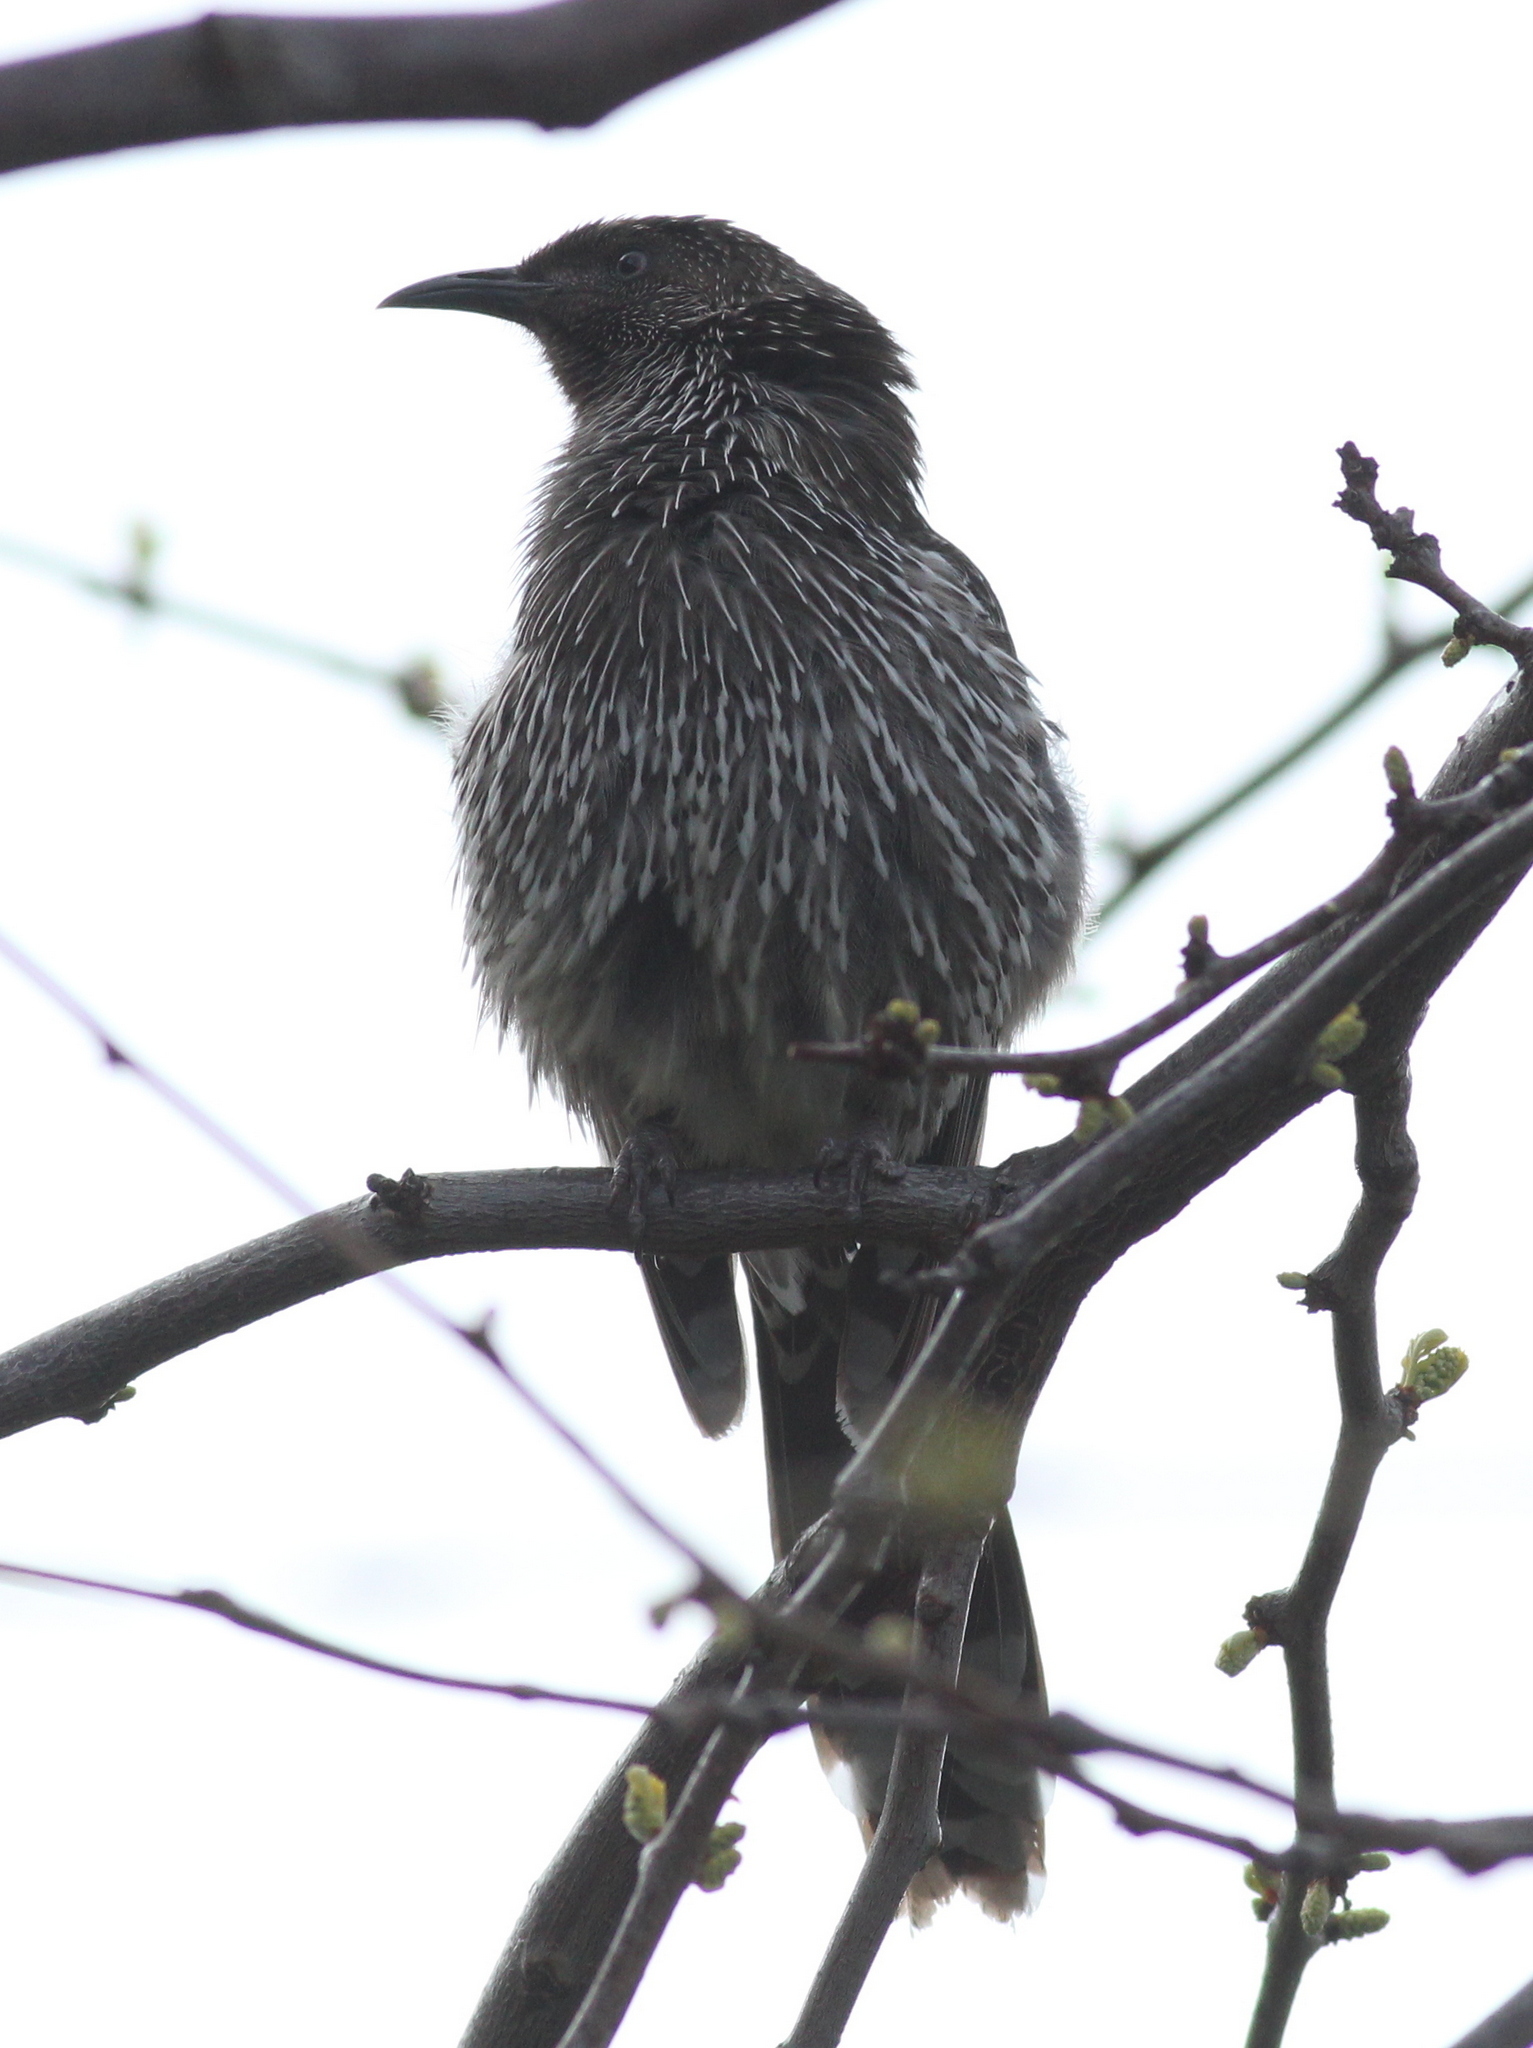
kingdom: Animalia
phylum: Chordata
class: Aves
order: Passeriformes
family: Meliphagidae
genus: Anthochaera
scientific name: Anthochaera chrysoptera
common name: Little wattlebird
